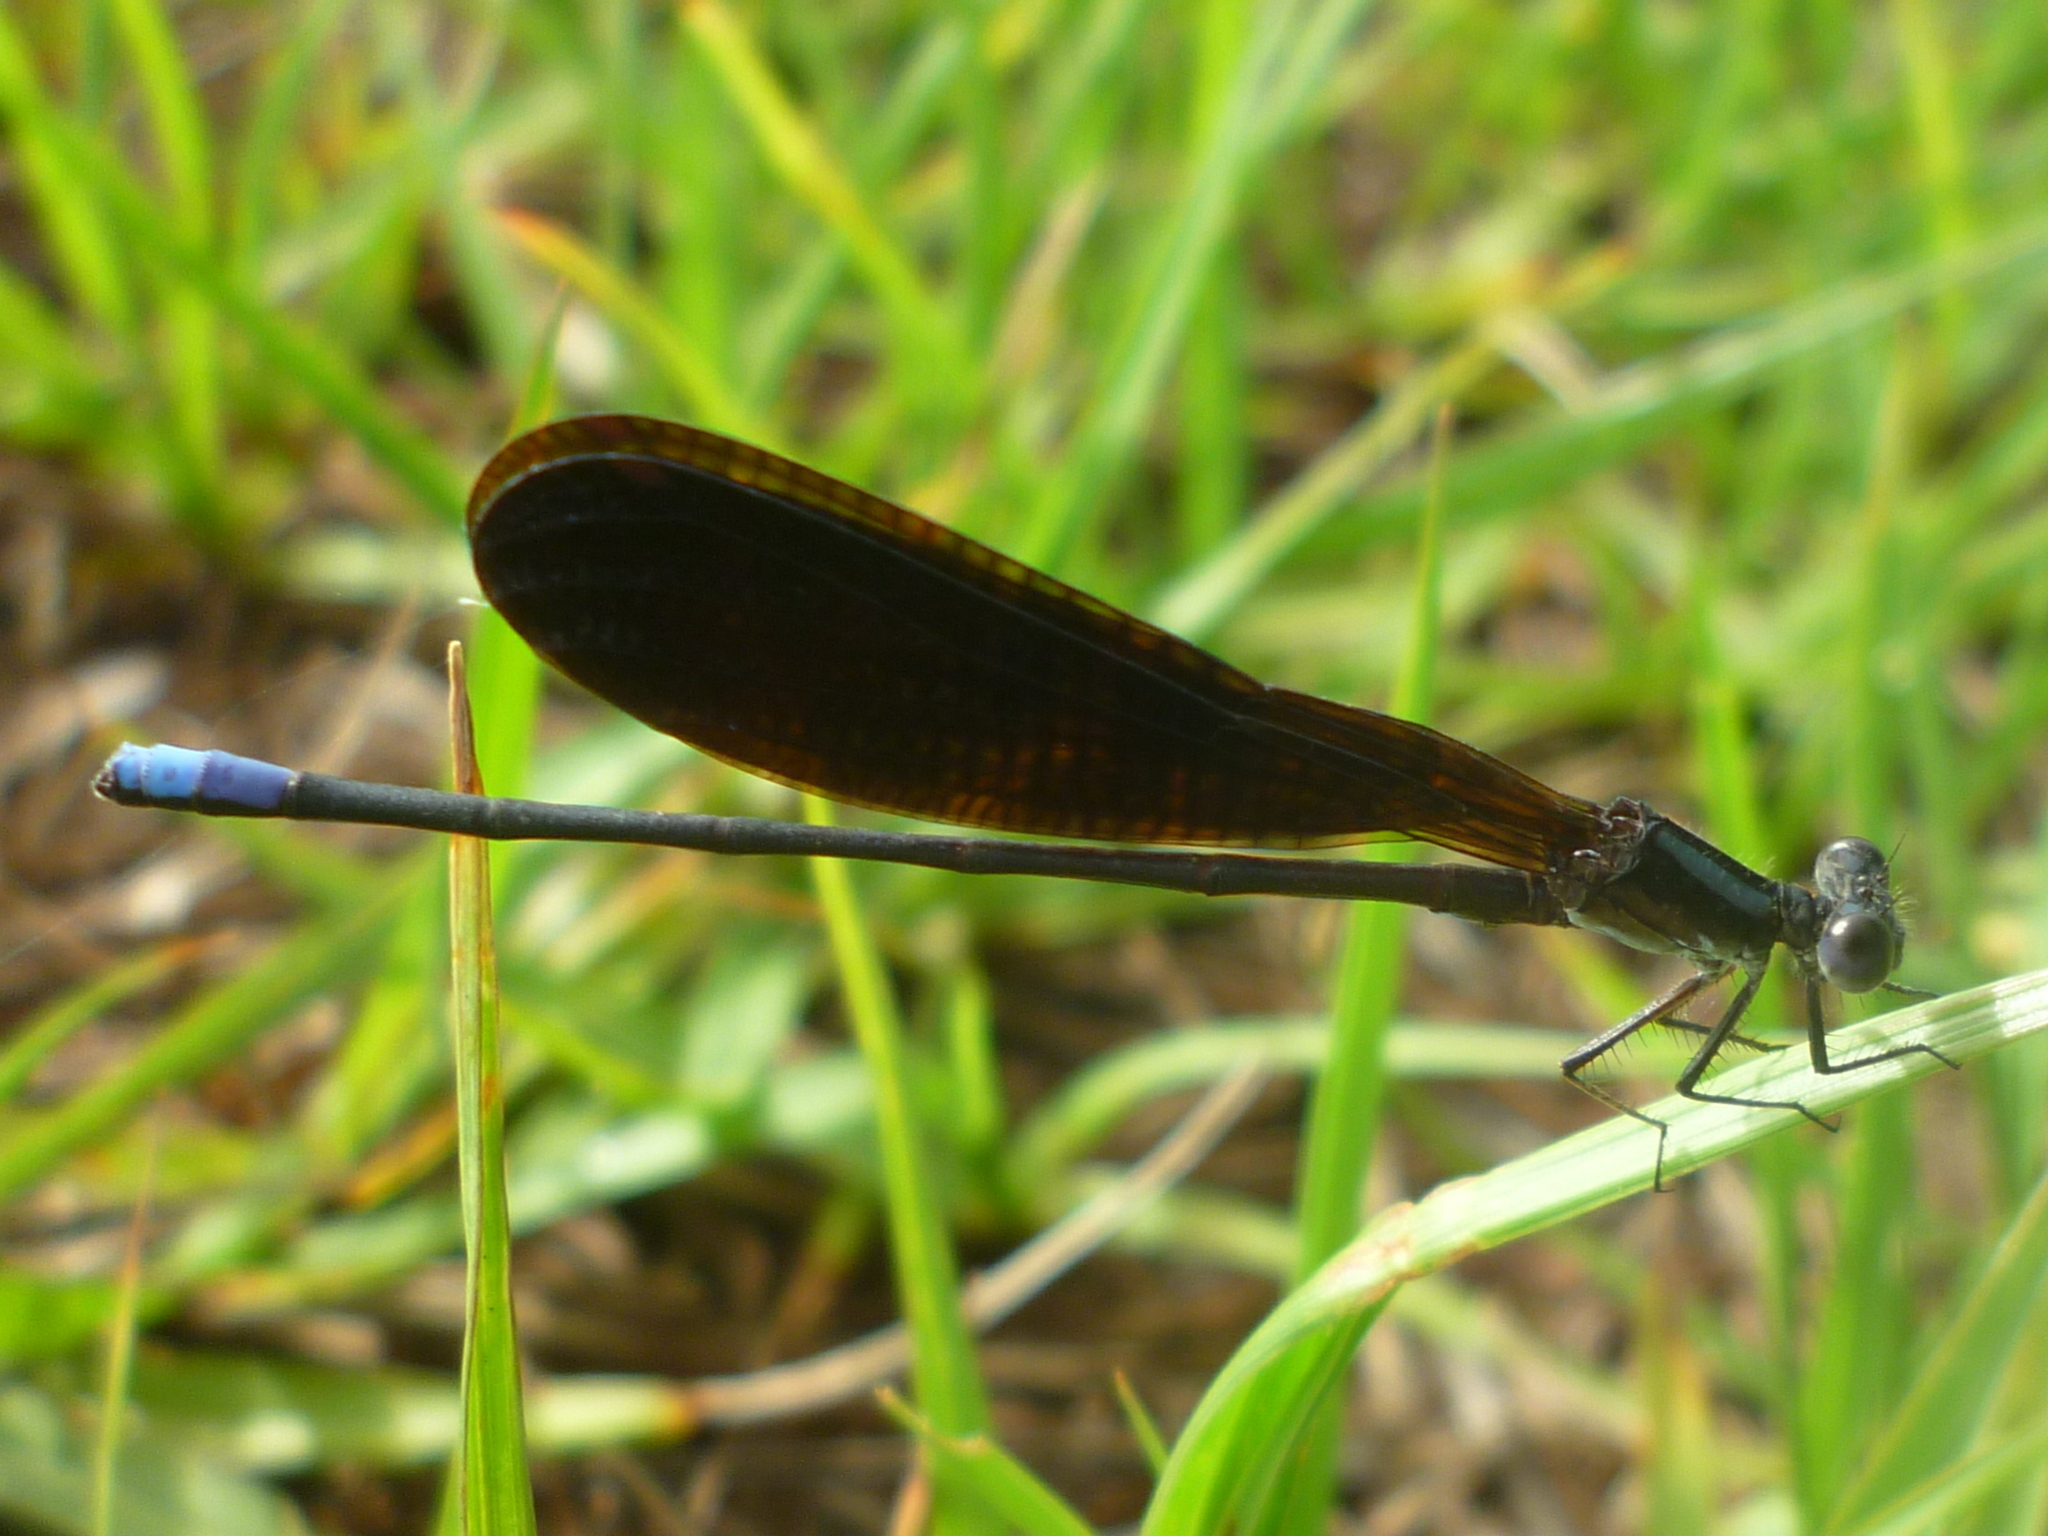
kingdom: Animalia
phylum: Arthropoda
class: Insecta
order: Odonata
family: Coenagrionidae
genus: Argia
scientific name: Argia fumipennis
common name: Variable dancer
